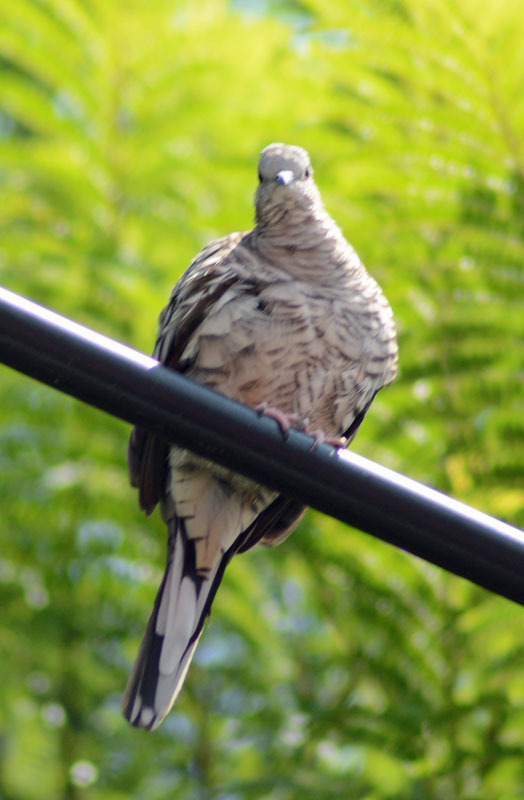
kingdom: Animalia
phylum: Chordata
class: Aves
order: Columbiformes
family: Columbidae
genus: Columbina
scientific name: Columbina inca
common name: Inca dove
